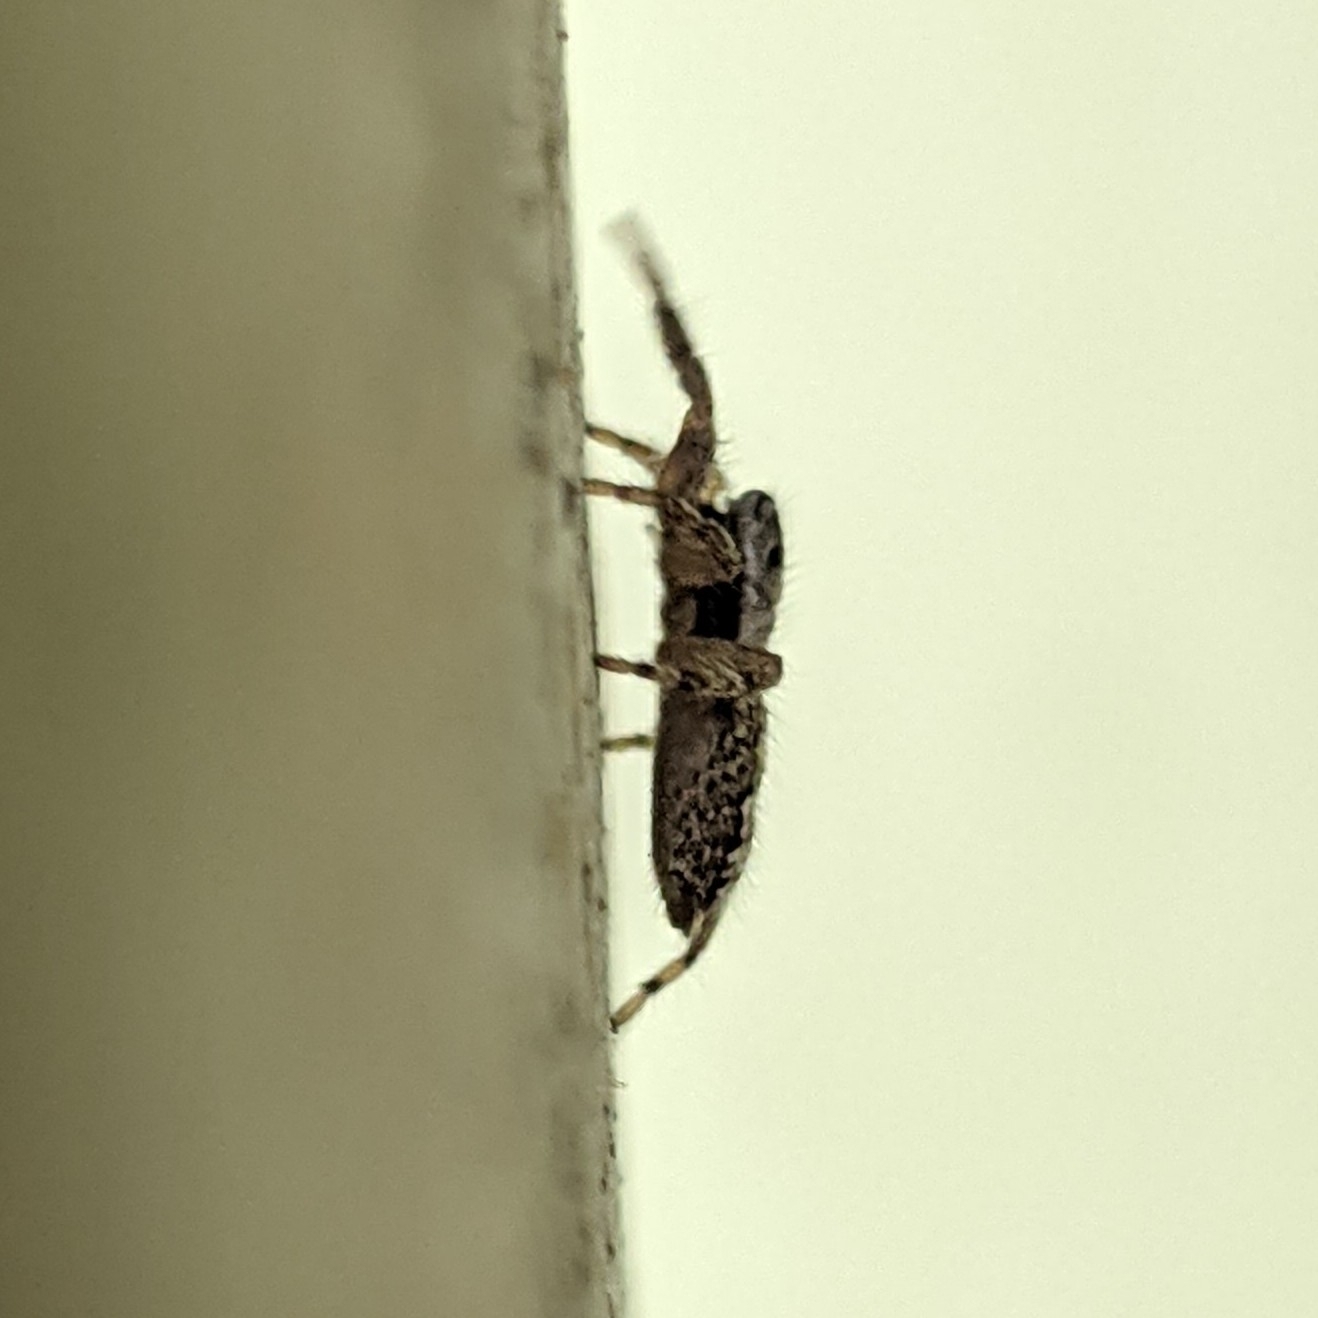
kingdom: Animalia
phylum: Arthropoda
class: Arachnida
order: Araneae
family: Salticidae
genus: Platycryptus
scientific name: Platycryptus undatus
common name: Tan jumping spider
